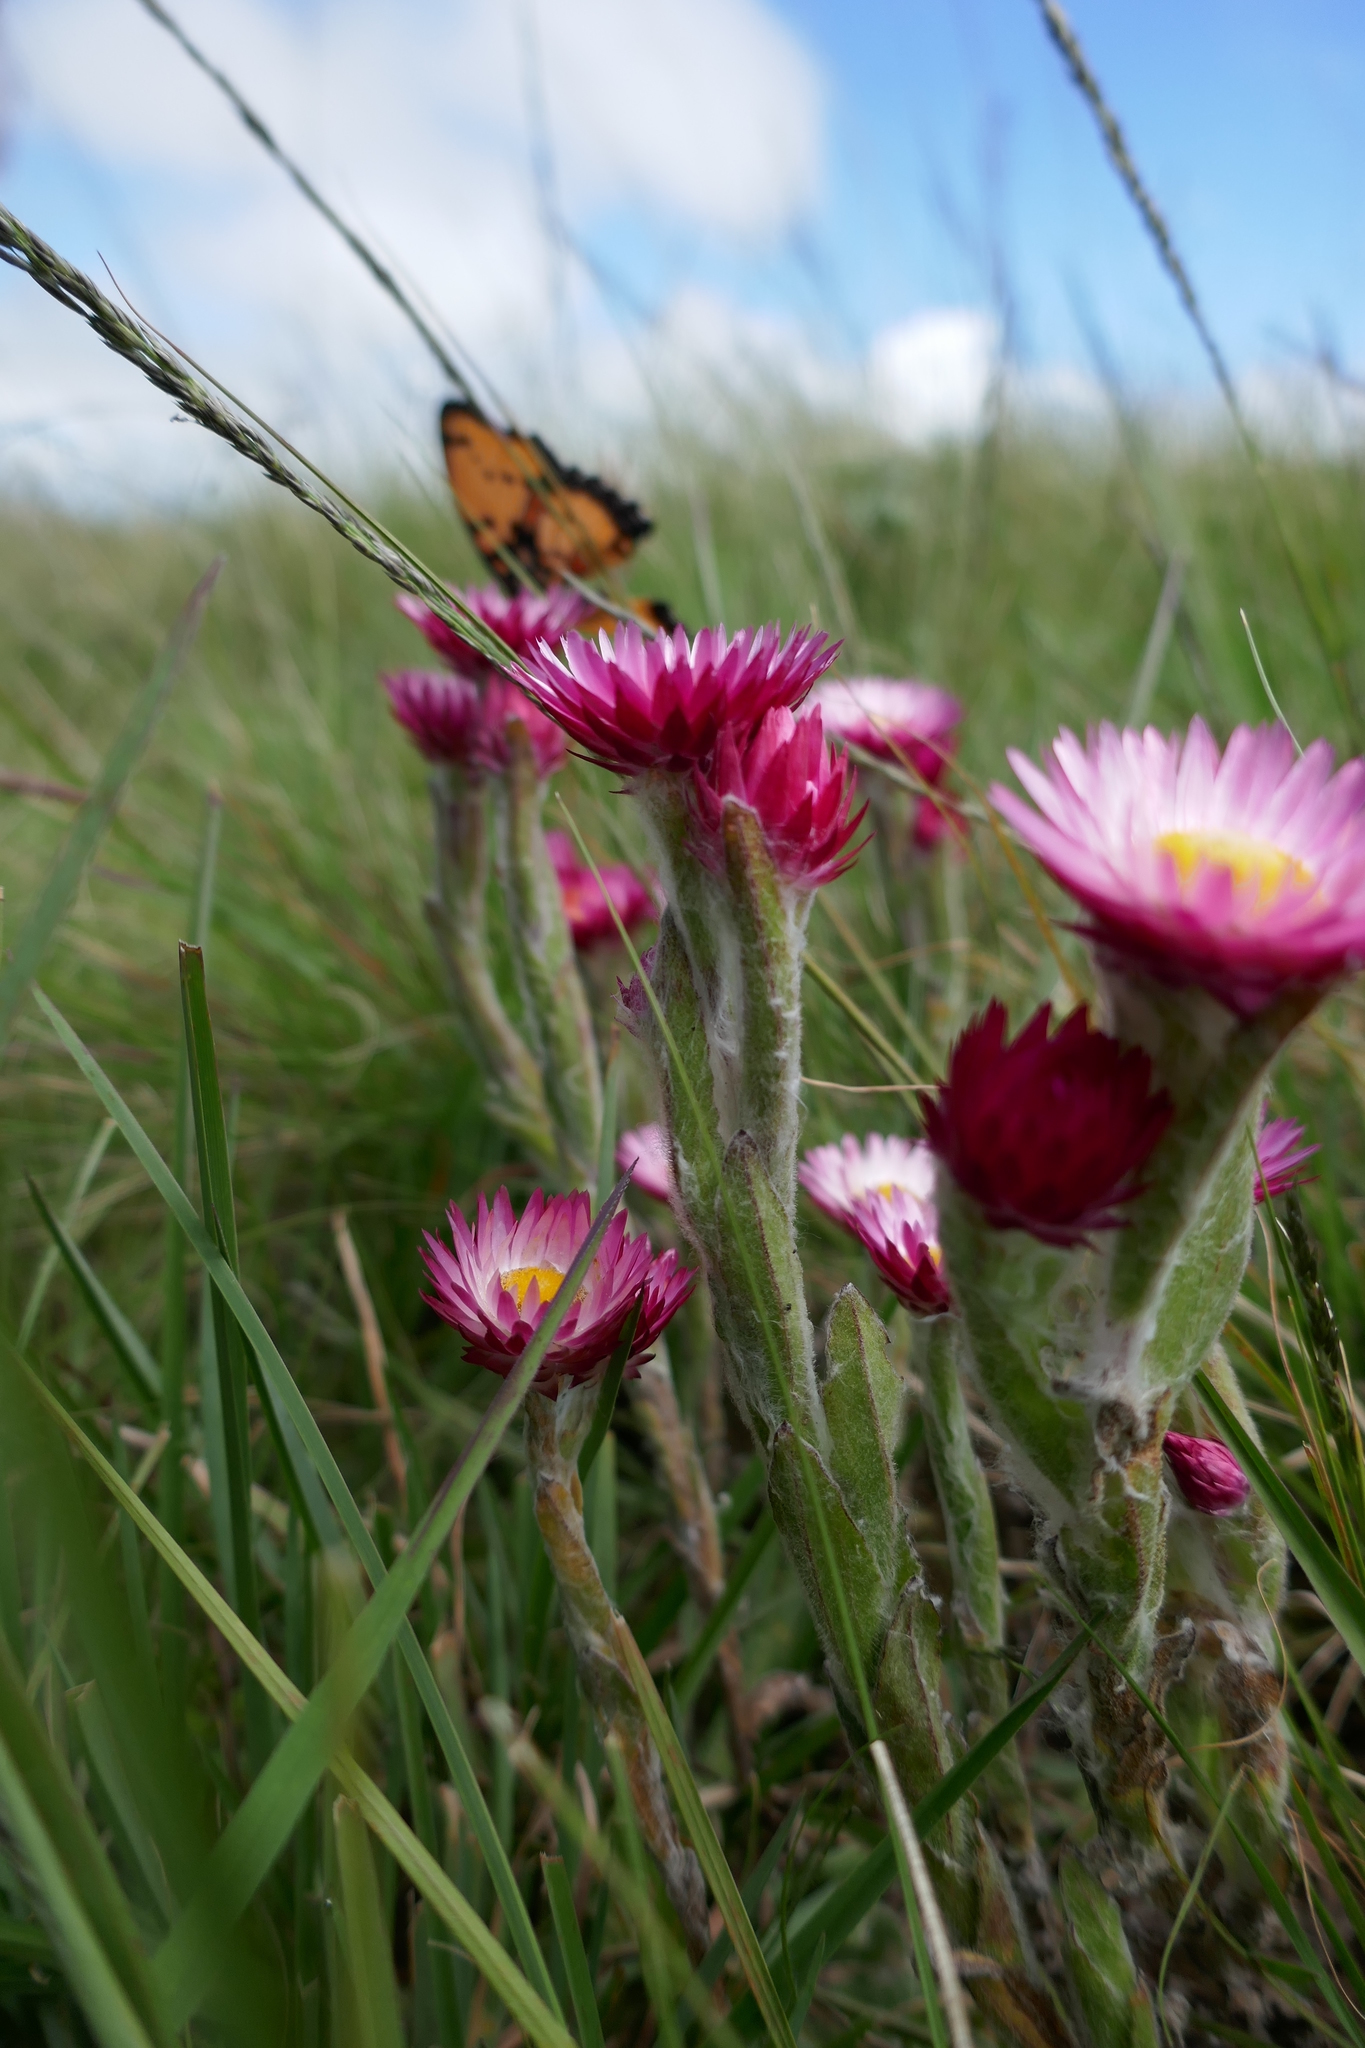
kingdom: Plantae
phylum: Tracheophyta
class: Magnoliopsida
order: Asterales
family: Asteraceae
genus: Helichrysum
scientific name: Helichrysum adenocarpum
